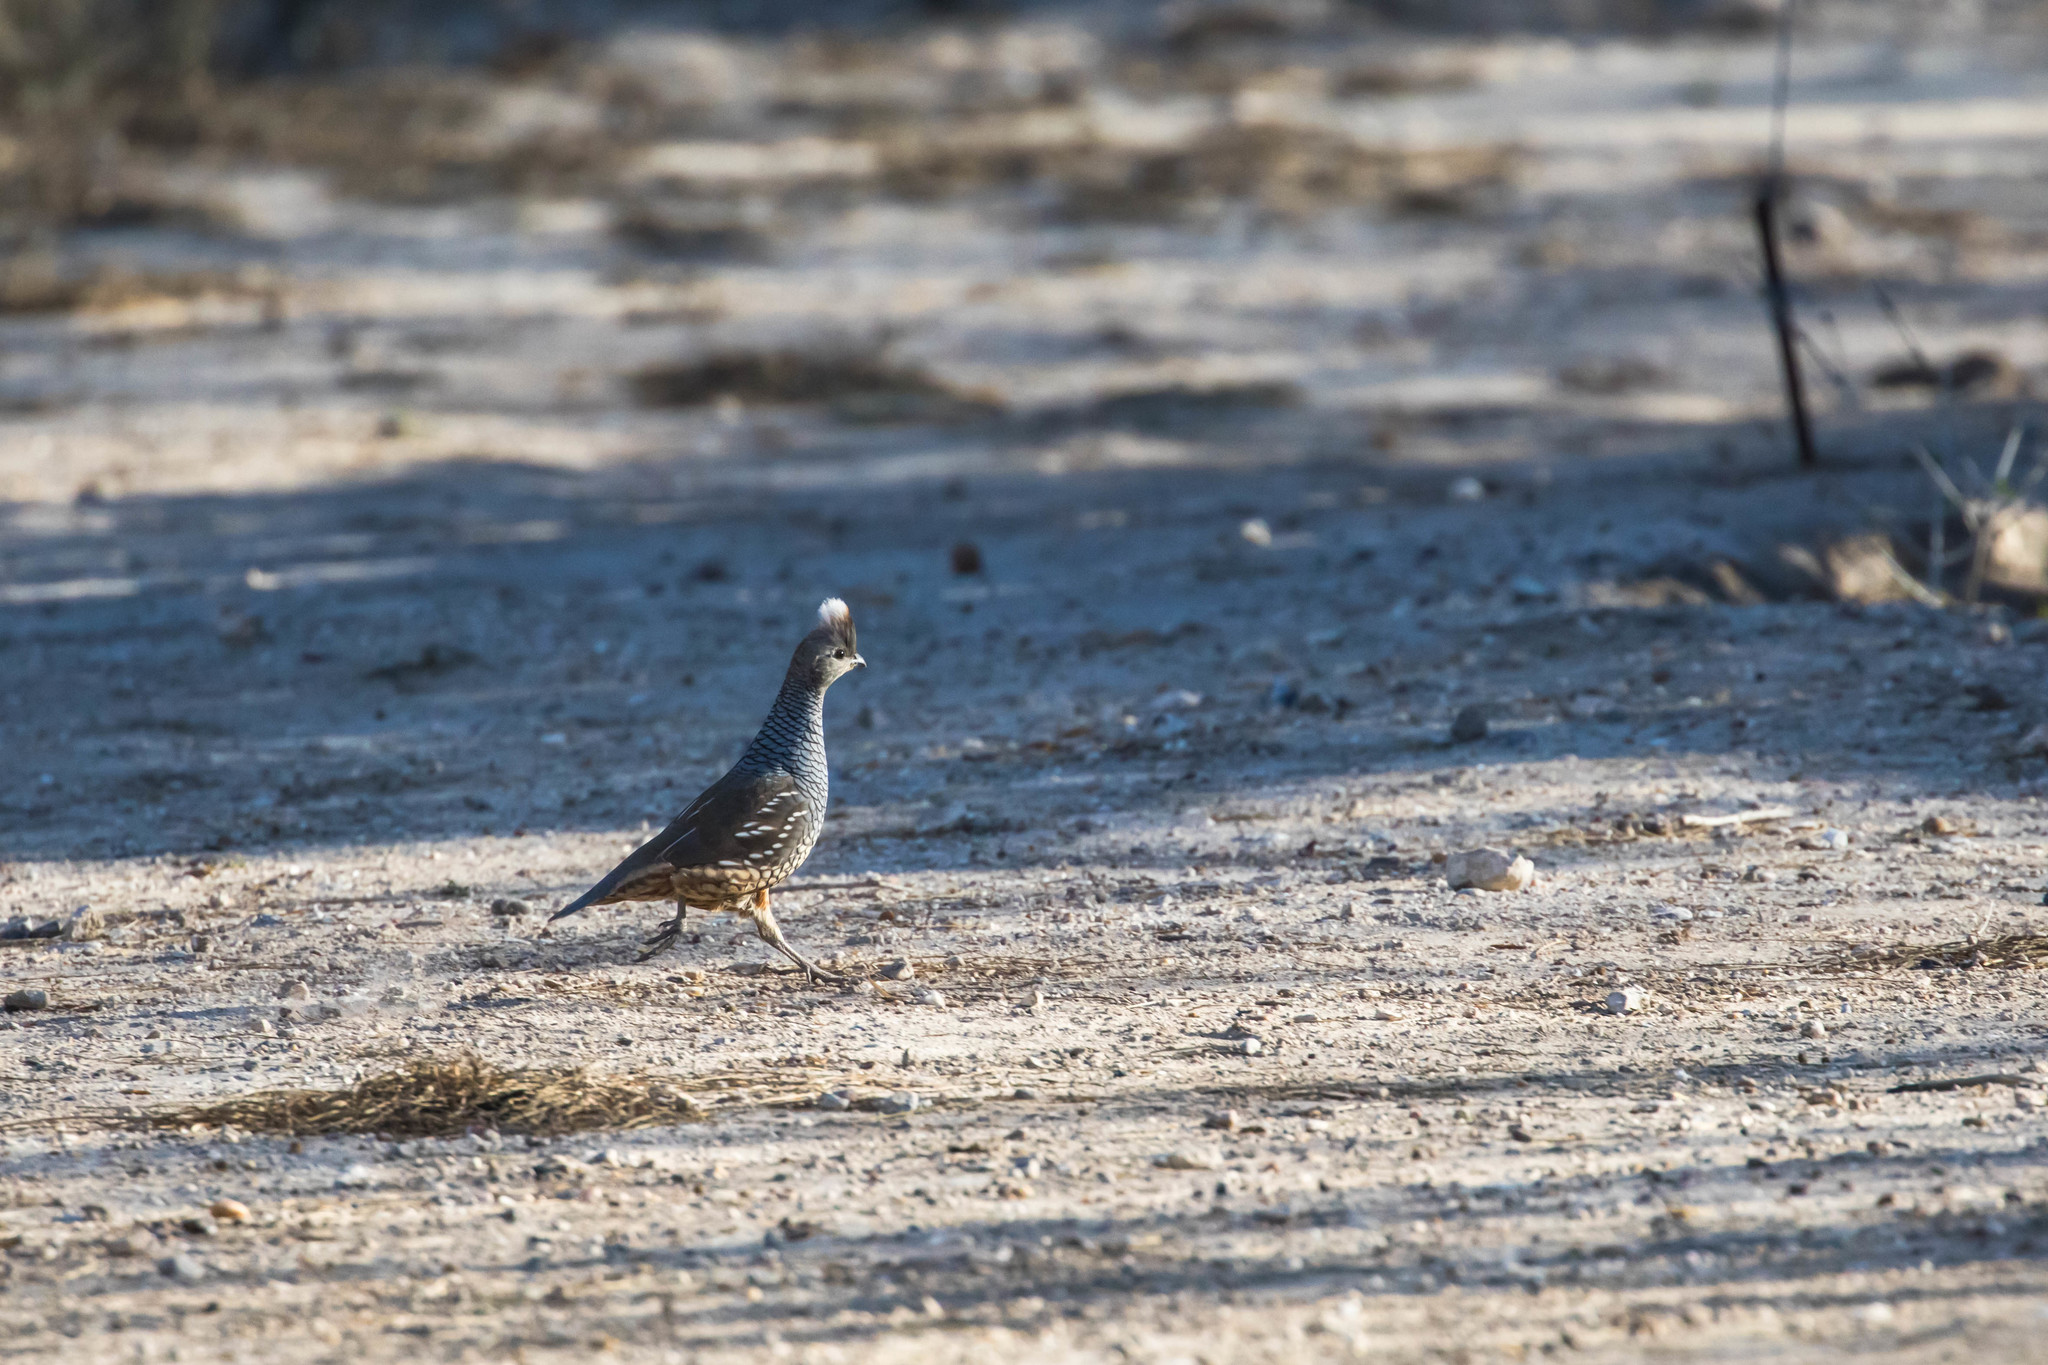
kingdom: Animalia
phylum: Chordata
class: Aves
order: Galliformes
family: Odontophoridae
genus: Callipepla
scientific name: Callipepla squamata
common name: Scaled quail
